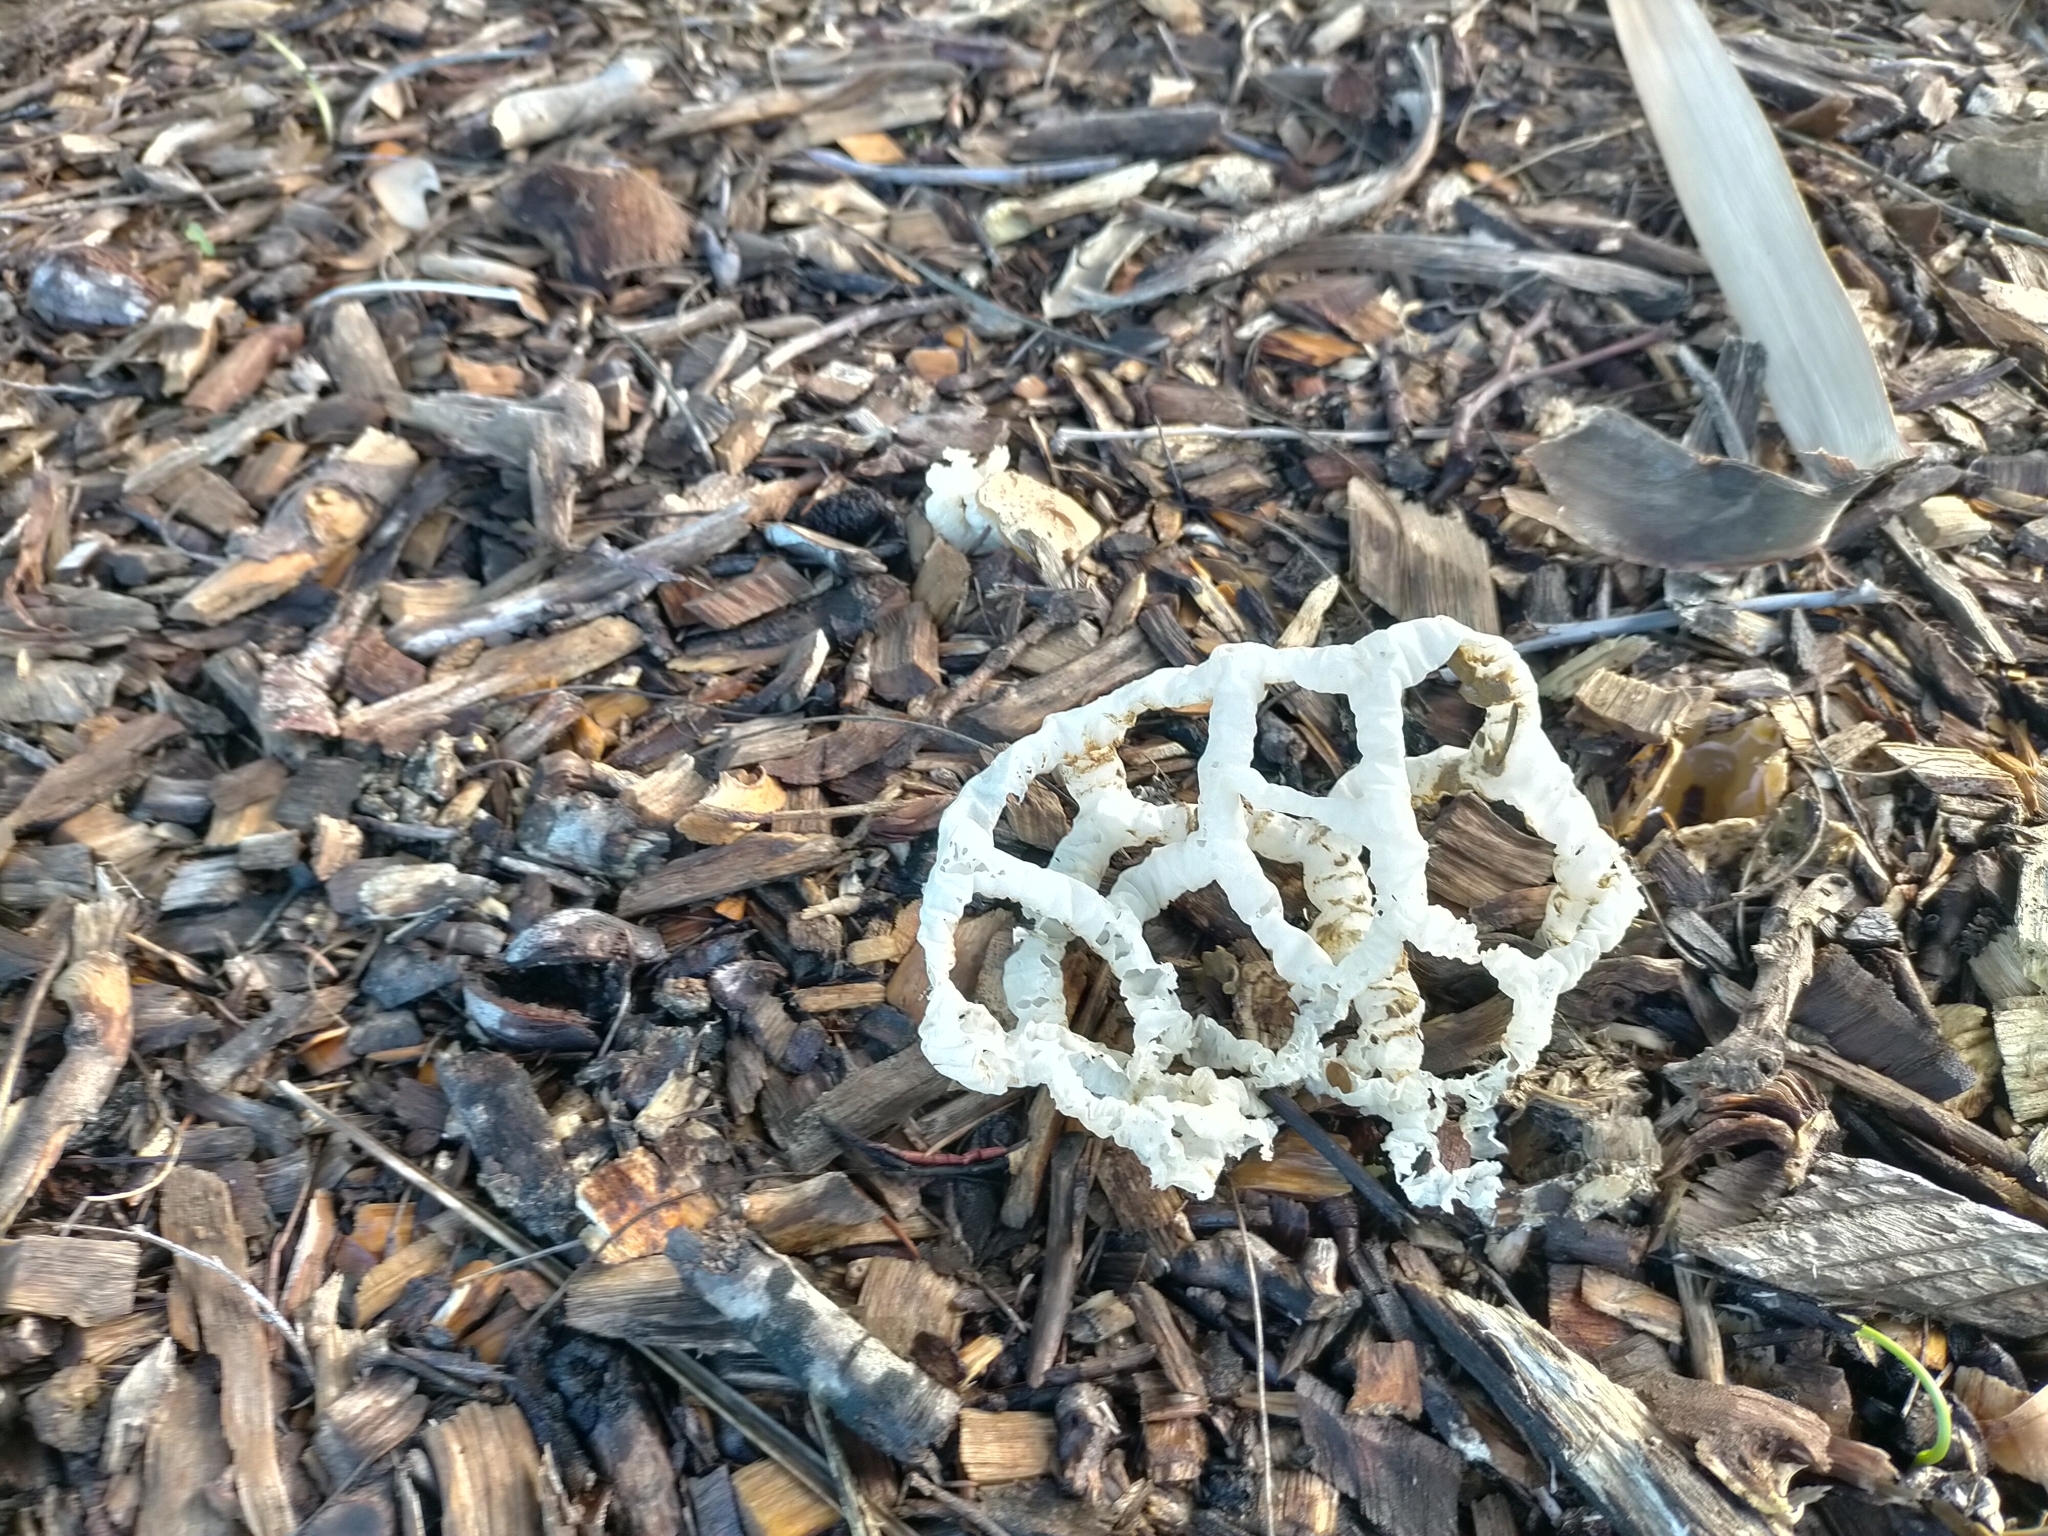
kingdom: Fungi
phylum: Basidiomycota
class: Agaricomycetes
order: Phallales
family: Phallaceae
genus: Ileodictyon
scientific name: Ileodictyon cibarium
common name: Basket fungus
